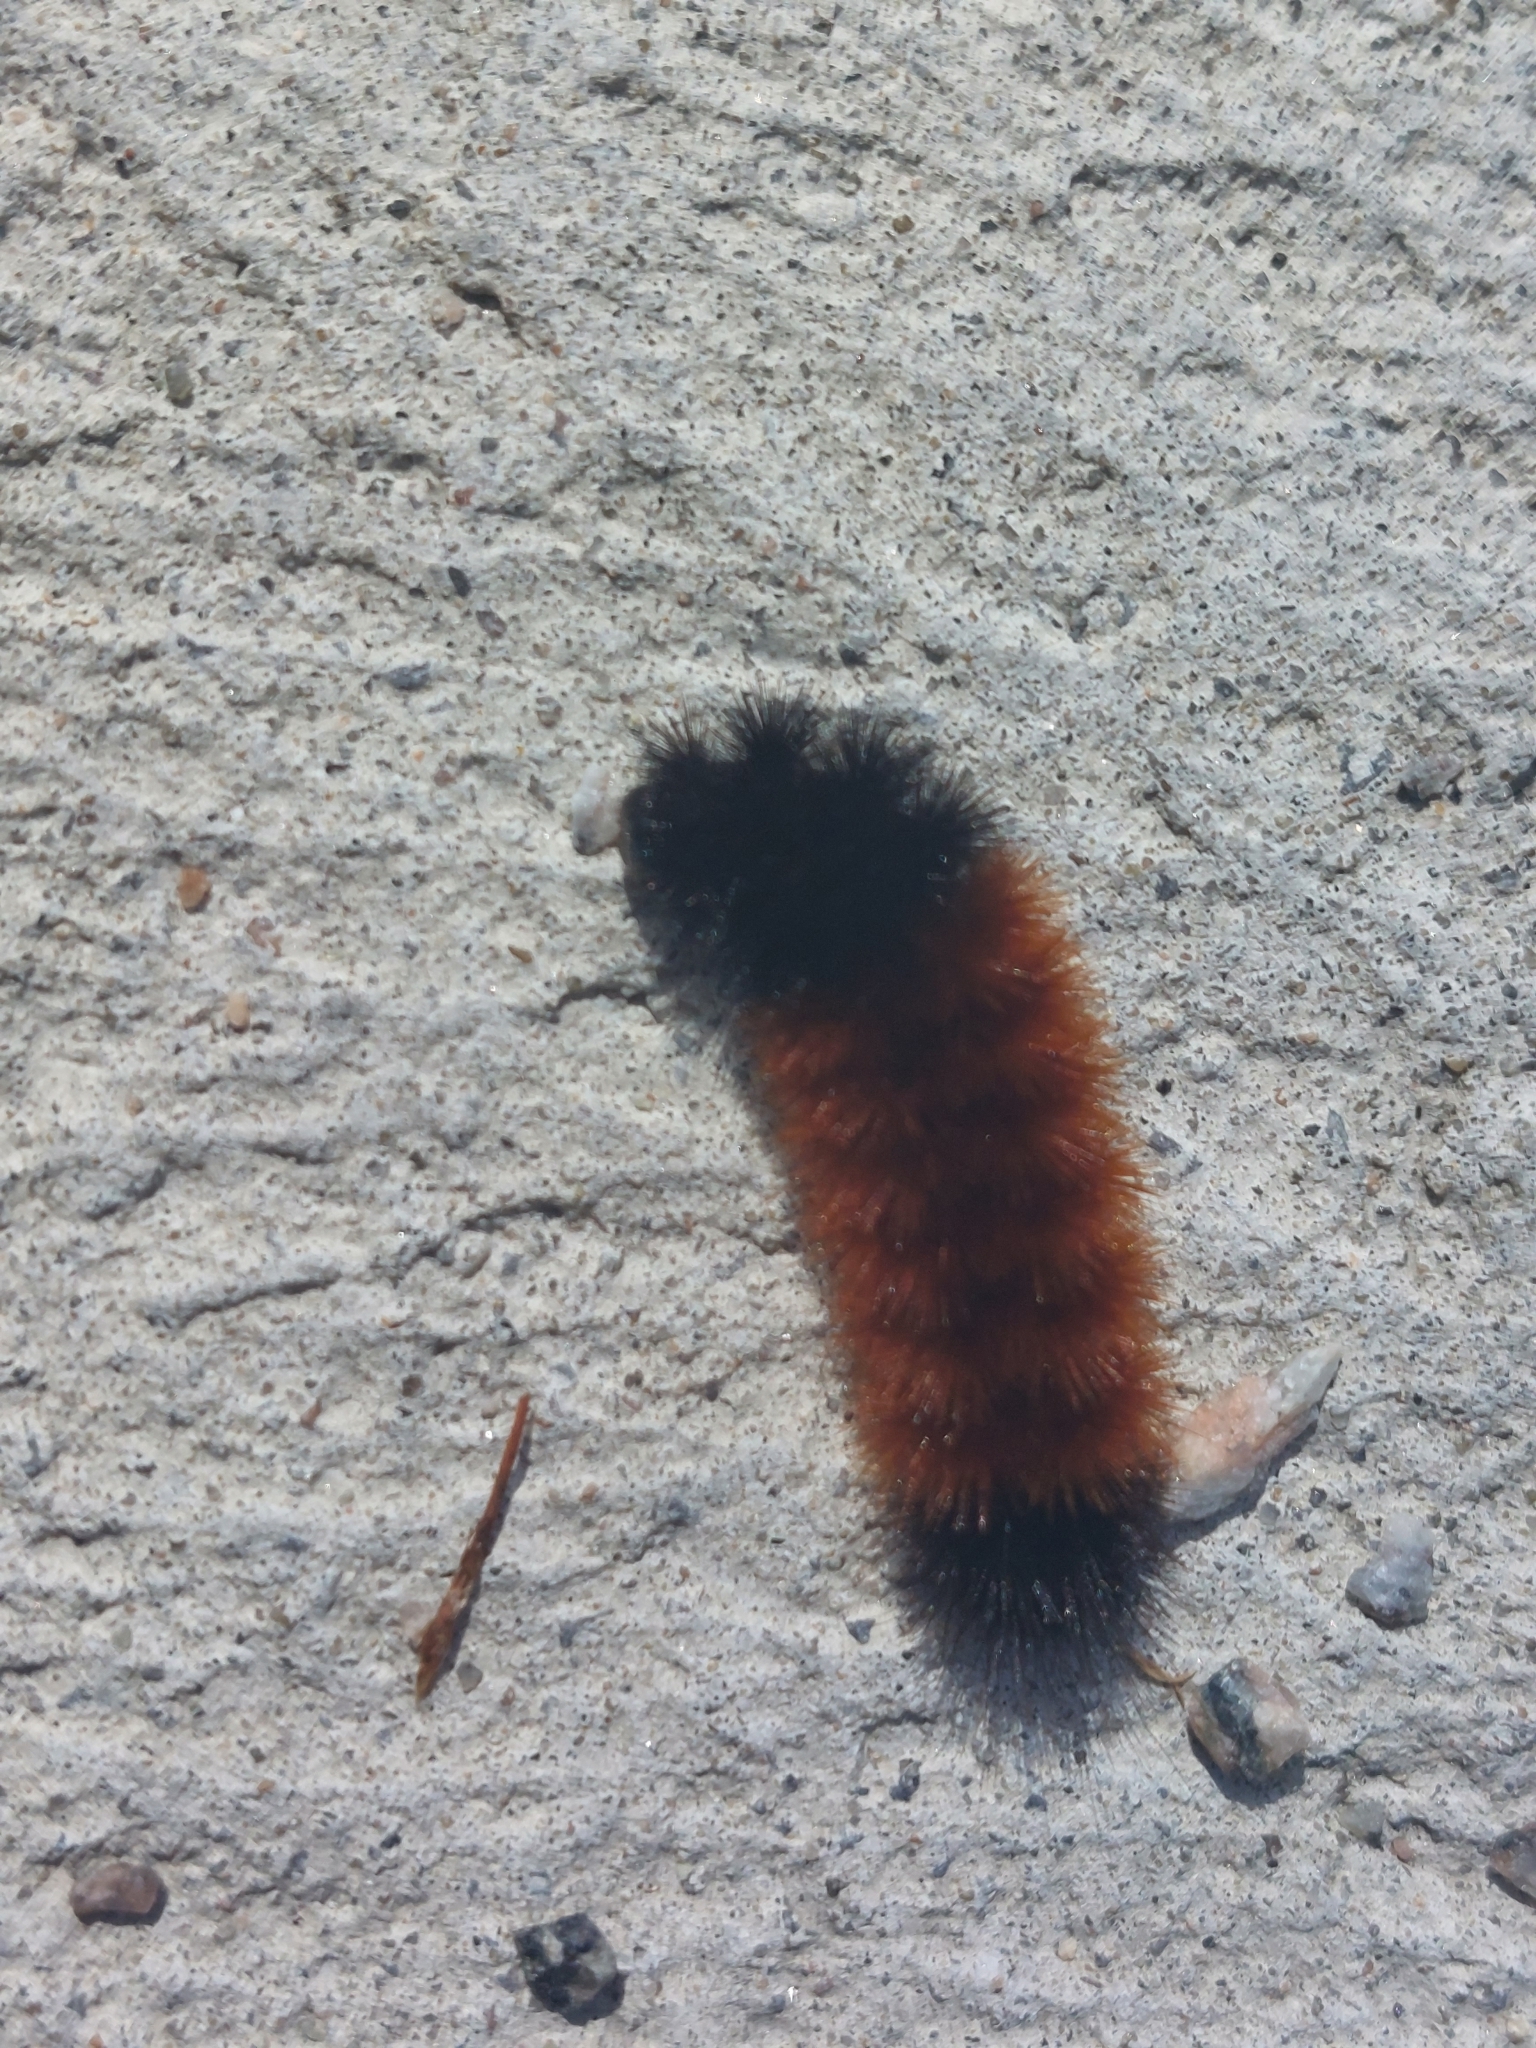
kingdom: Animalia
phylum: Arthropoda
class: Insecta
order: Lepidoptera
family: Erebidae
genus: Pyrrharctia
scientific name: Pyrrharctia isabella
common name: Isabella tiger moth
